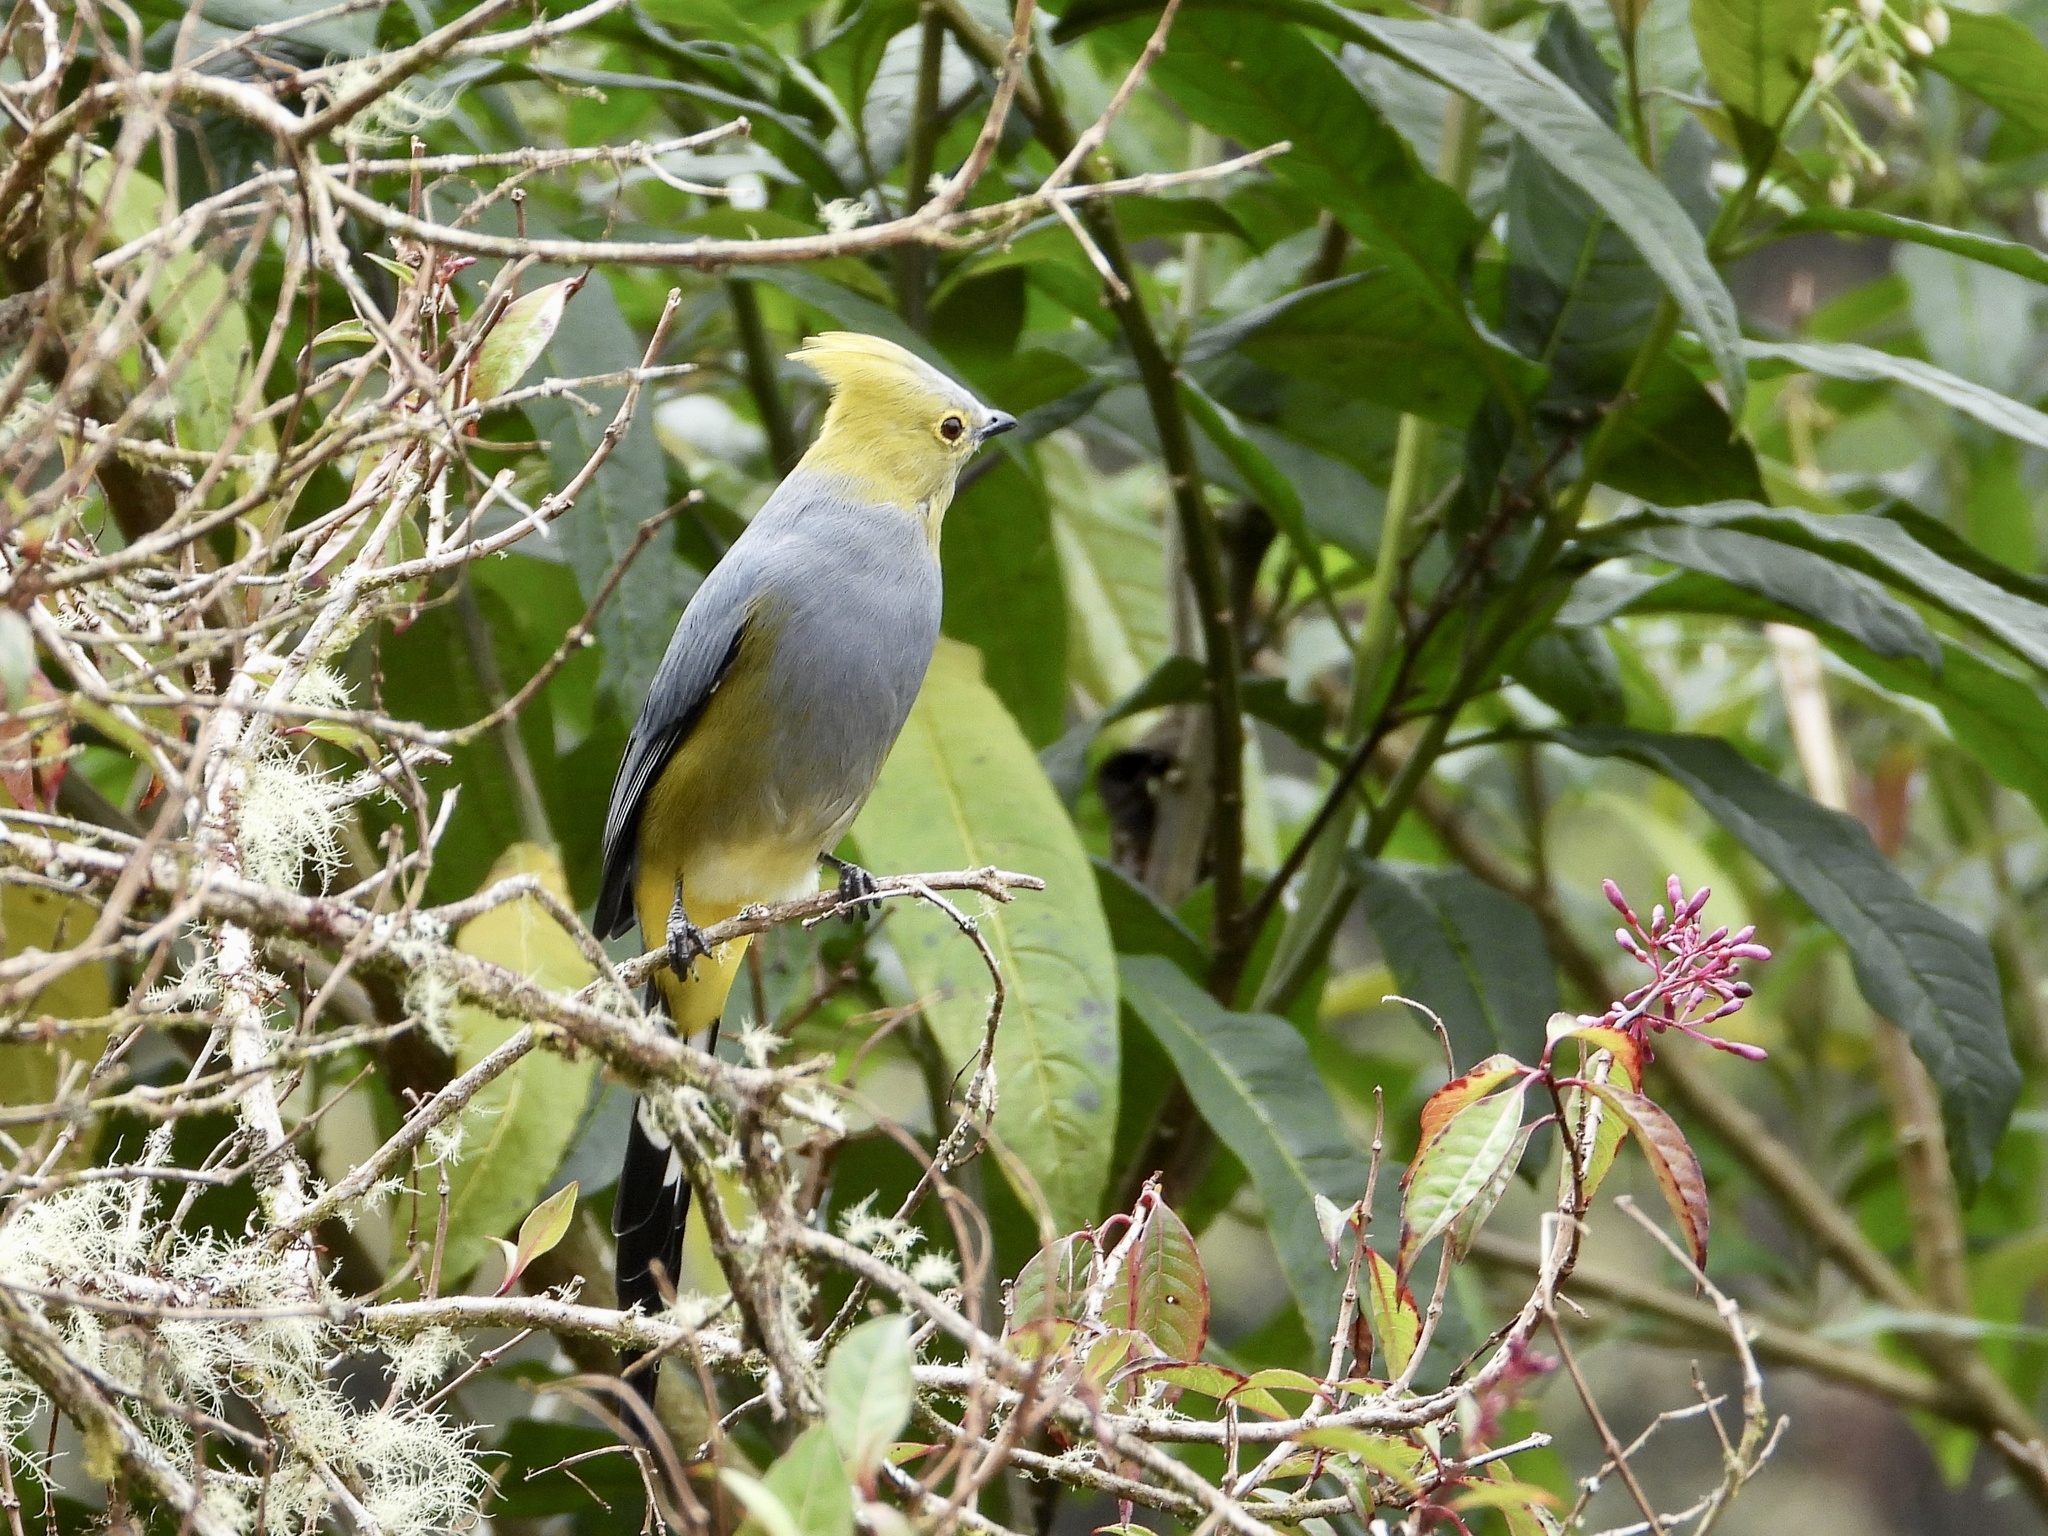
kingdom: Animalia
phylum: Chordata
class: Aves
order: Passeriformes
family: Ptilogonatidae
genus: Ptilogonys
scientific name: Ptilogonys caudatus
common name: Long-tailed silky-flycatcher
